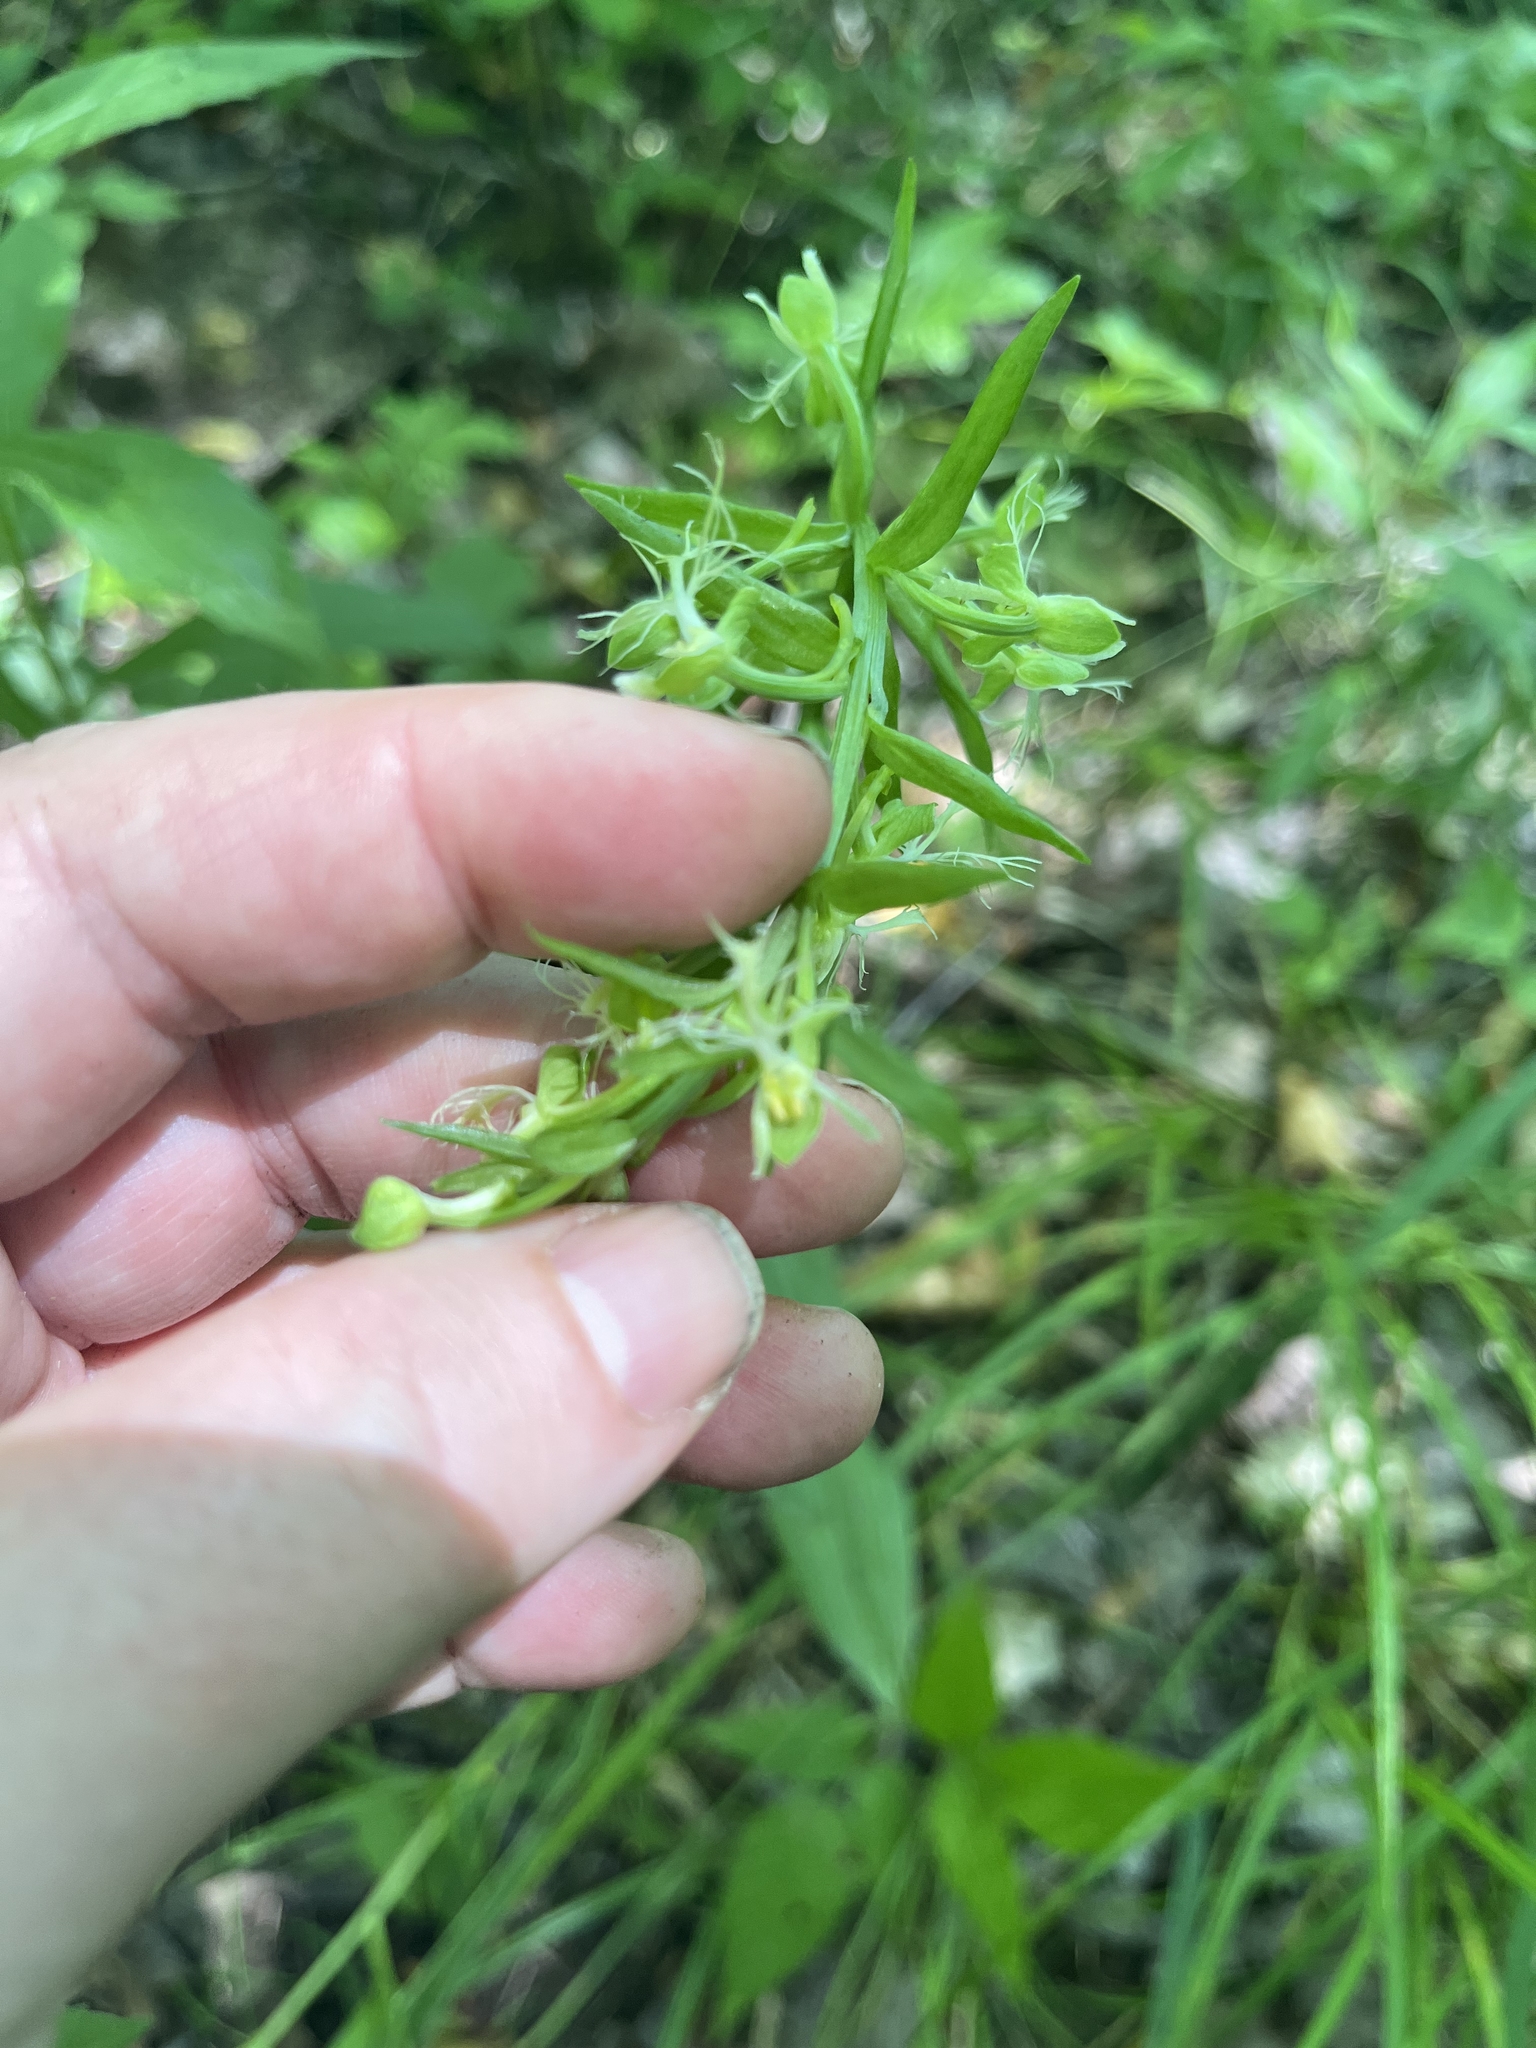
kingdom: Plantae
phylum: Tracheophyta
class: Liliopsida
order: Asparagales
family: Orchidaceae
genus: Platanthera
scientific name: Platanthera lacera
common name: Green fringed orchid
